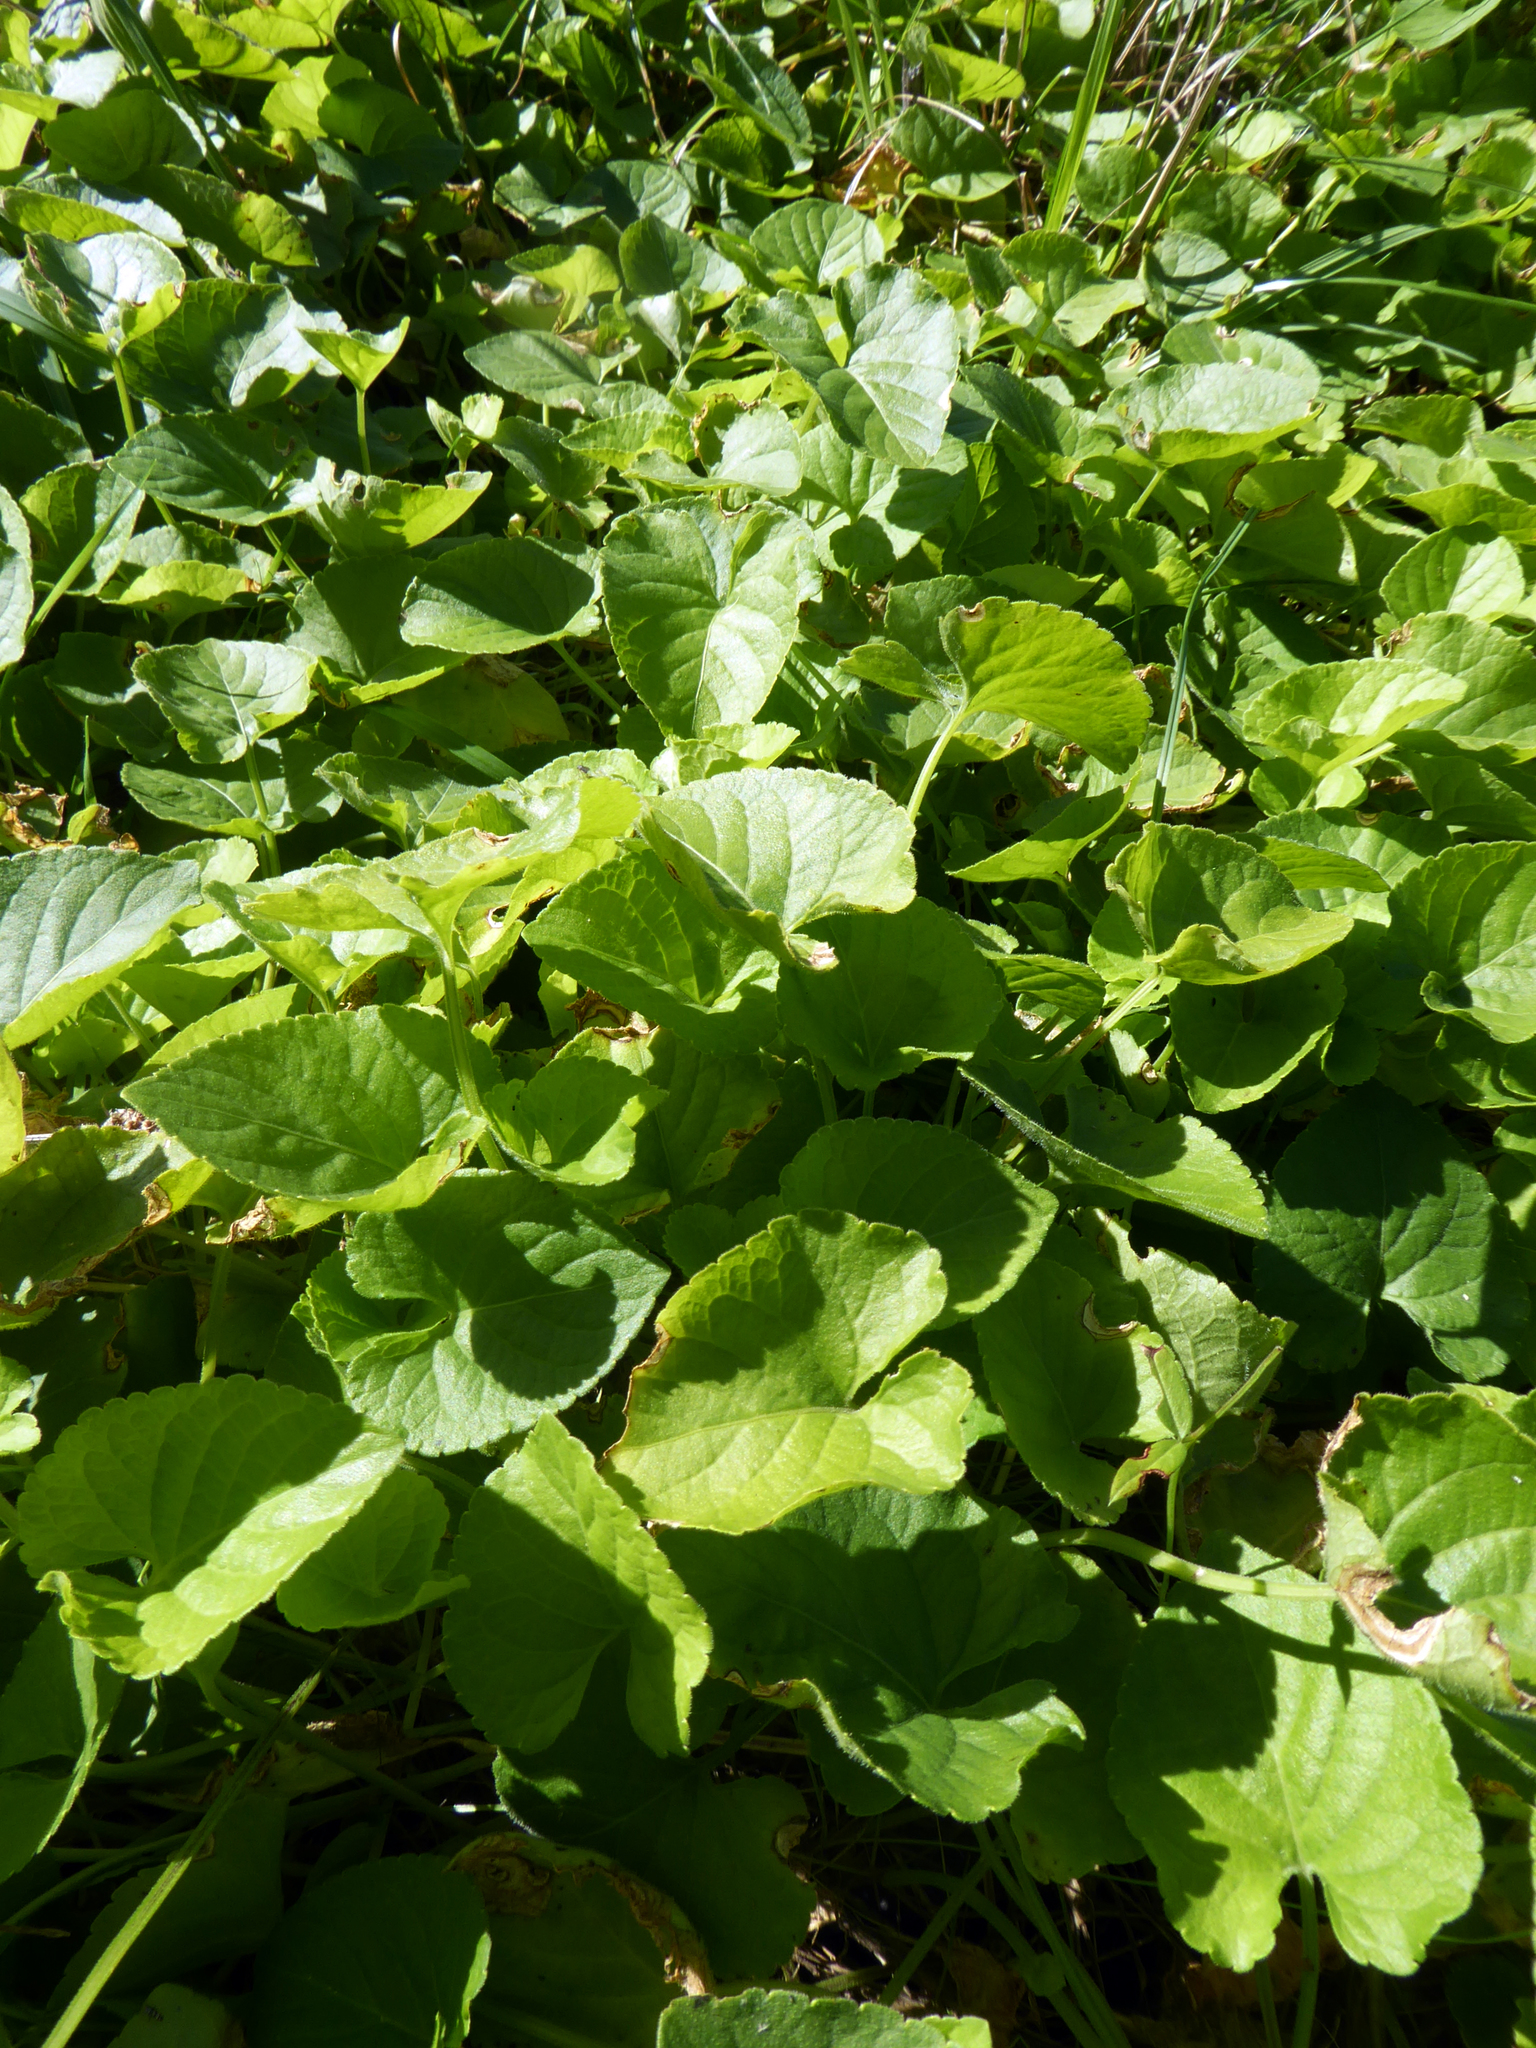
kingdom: Plantae
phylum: Tracheophyta
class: Magnoliopsida
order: Malpighiales
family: Violaceae
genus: Viola
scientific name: Viola odorata
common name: Sweet violet
